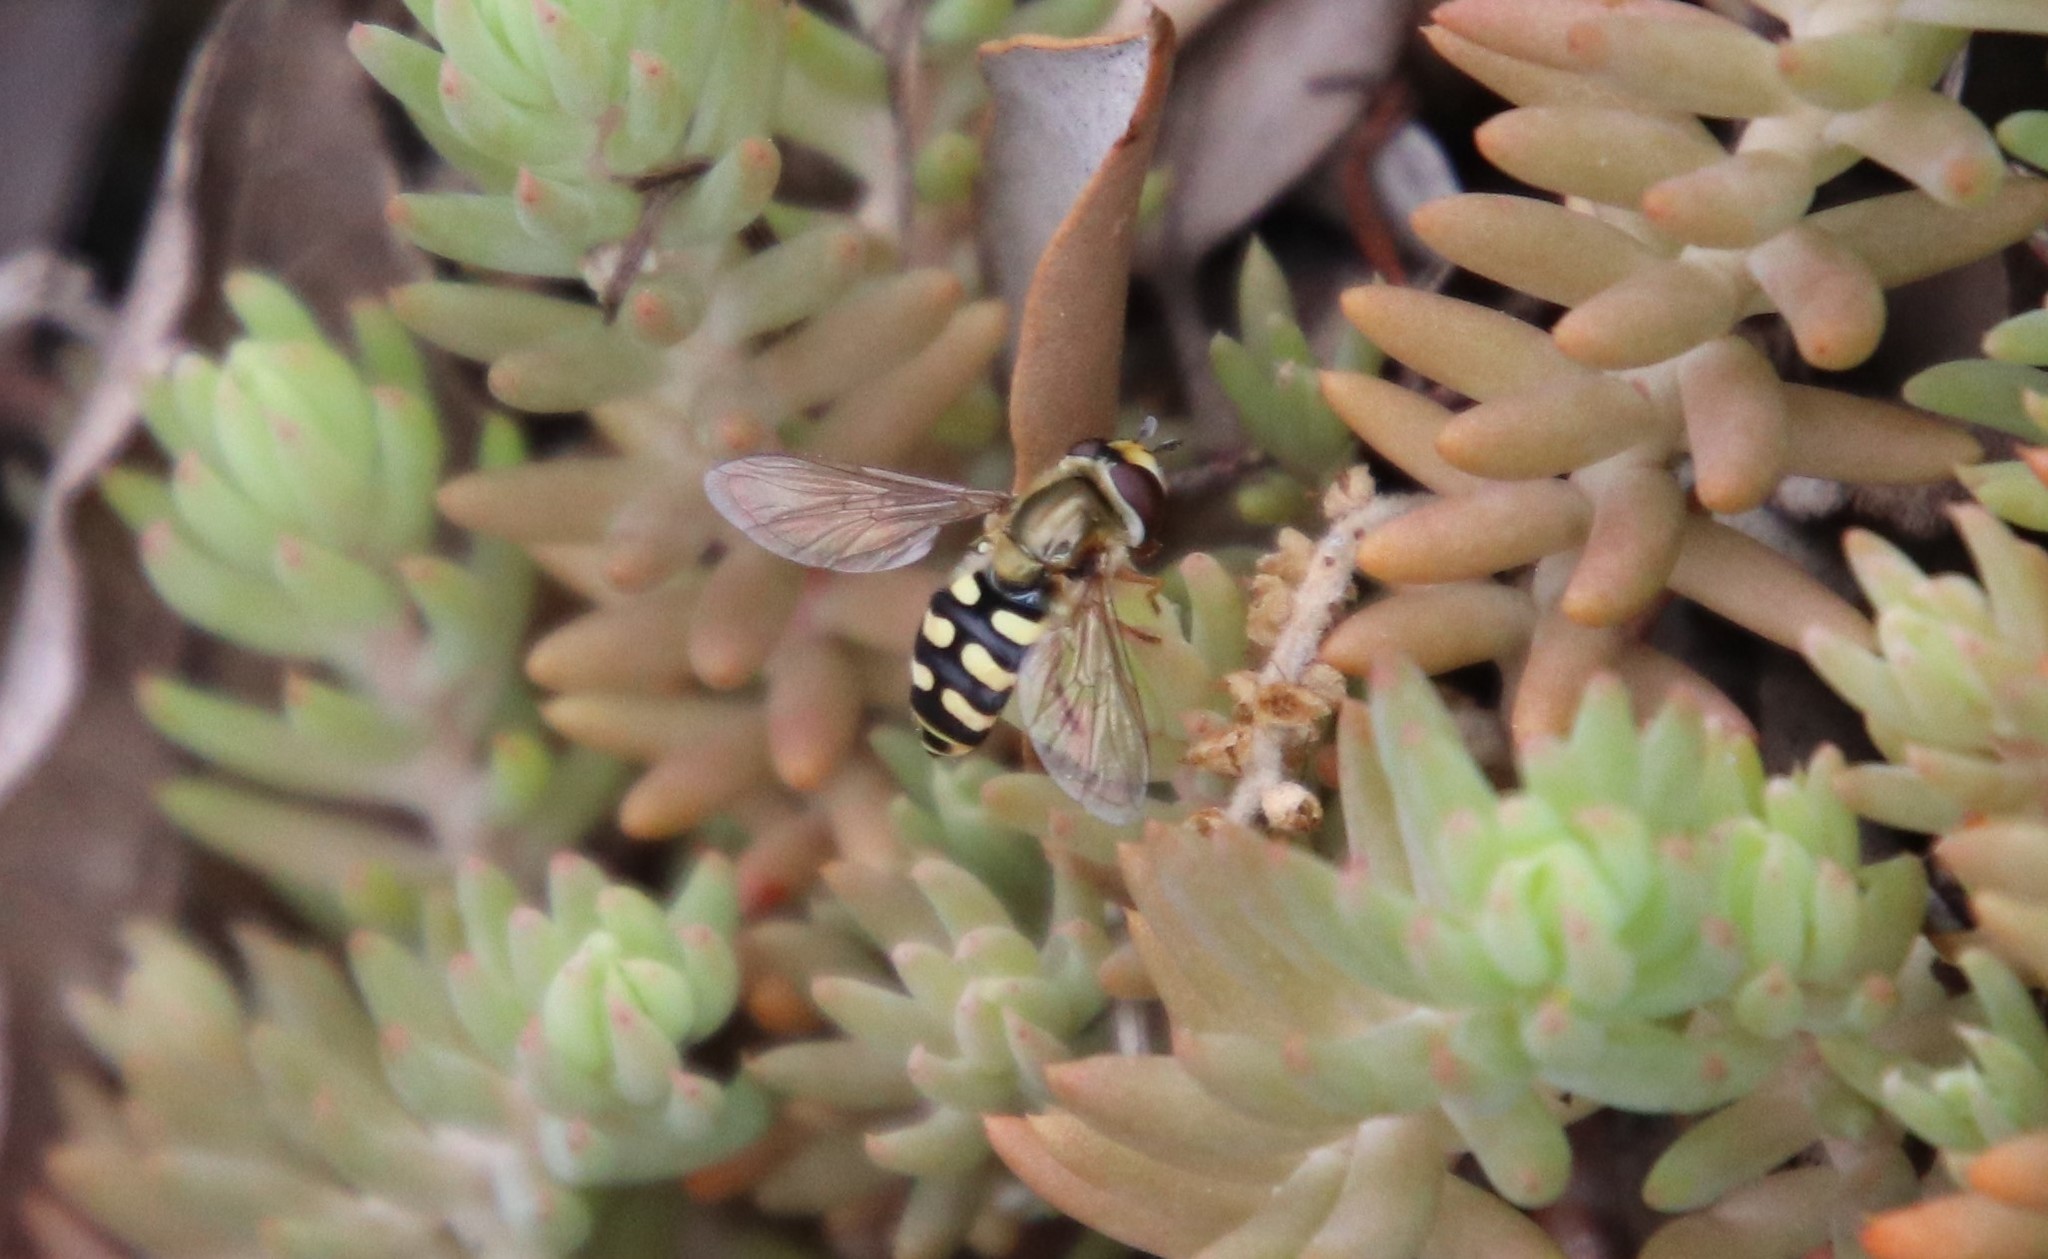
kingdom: Animalia
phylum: Arthropoda
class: Insecta
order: Diptera
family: Syrphidae
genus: Eupeodes
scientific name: Eupeodes corollae
